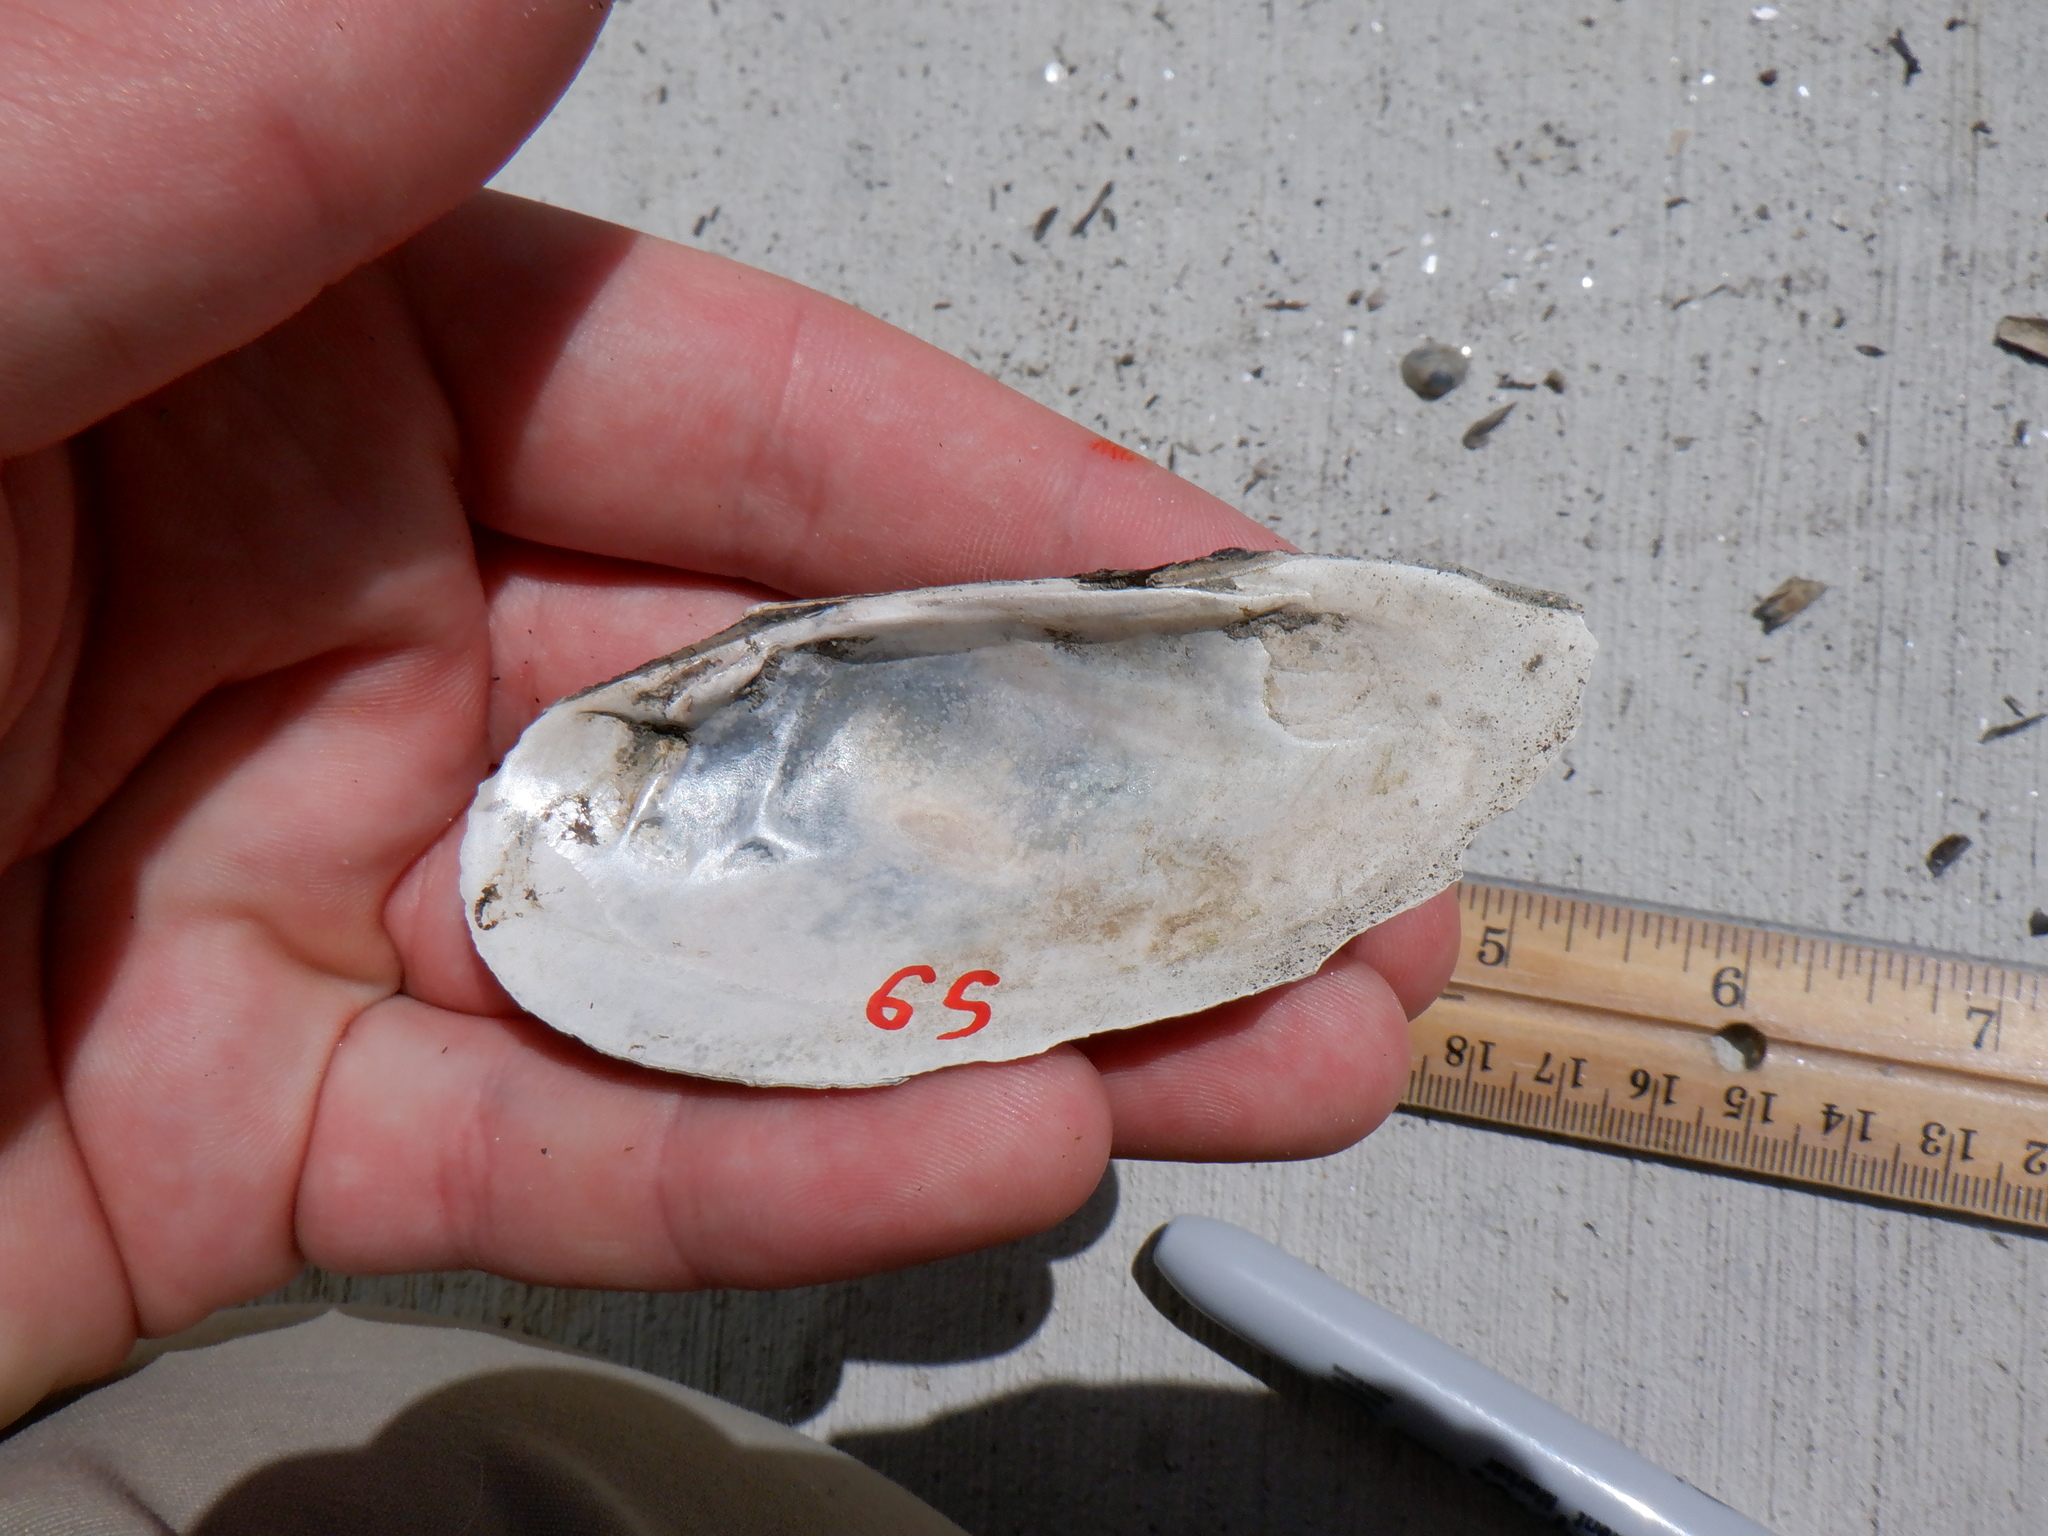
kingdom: Animalia
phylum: Mollusca
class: Bivalvia
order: Unionida
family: Unionidae
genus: Eurynia
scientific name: Eurynia dilatata
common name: Spike
